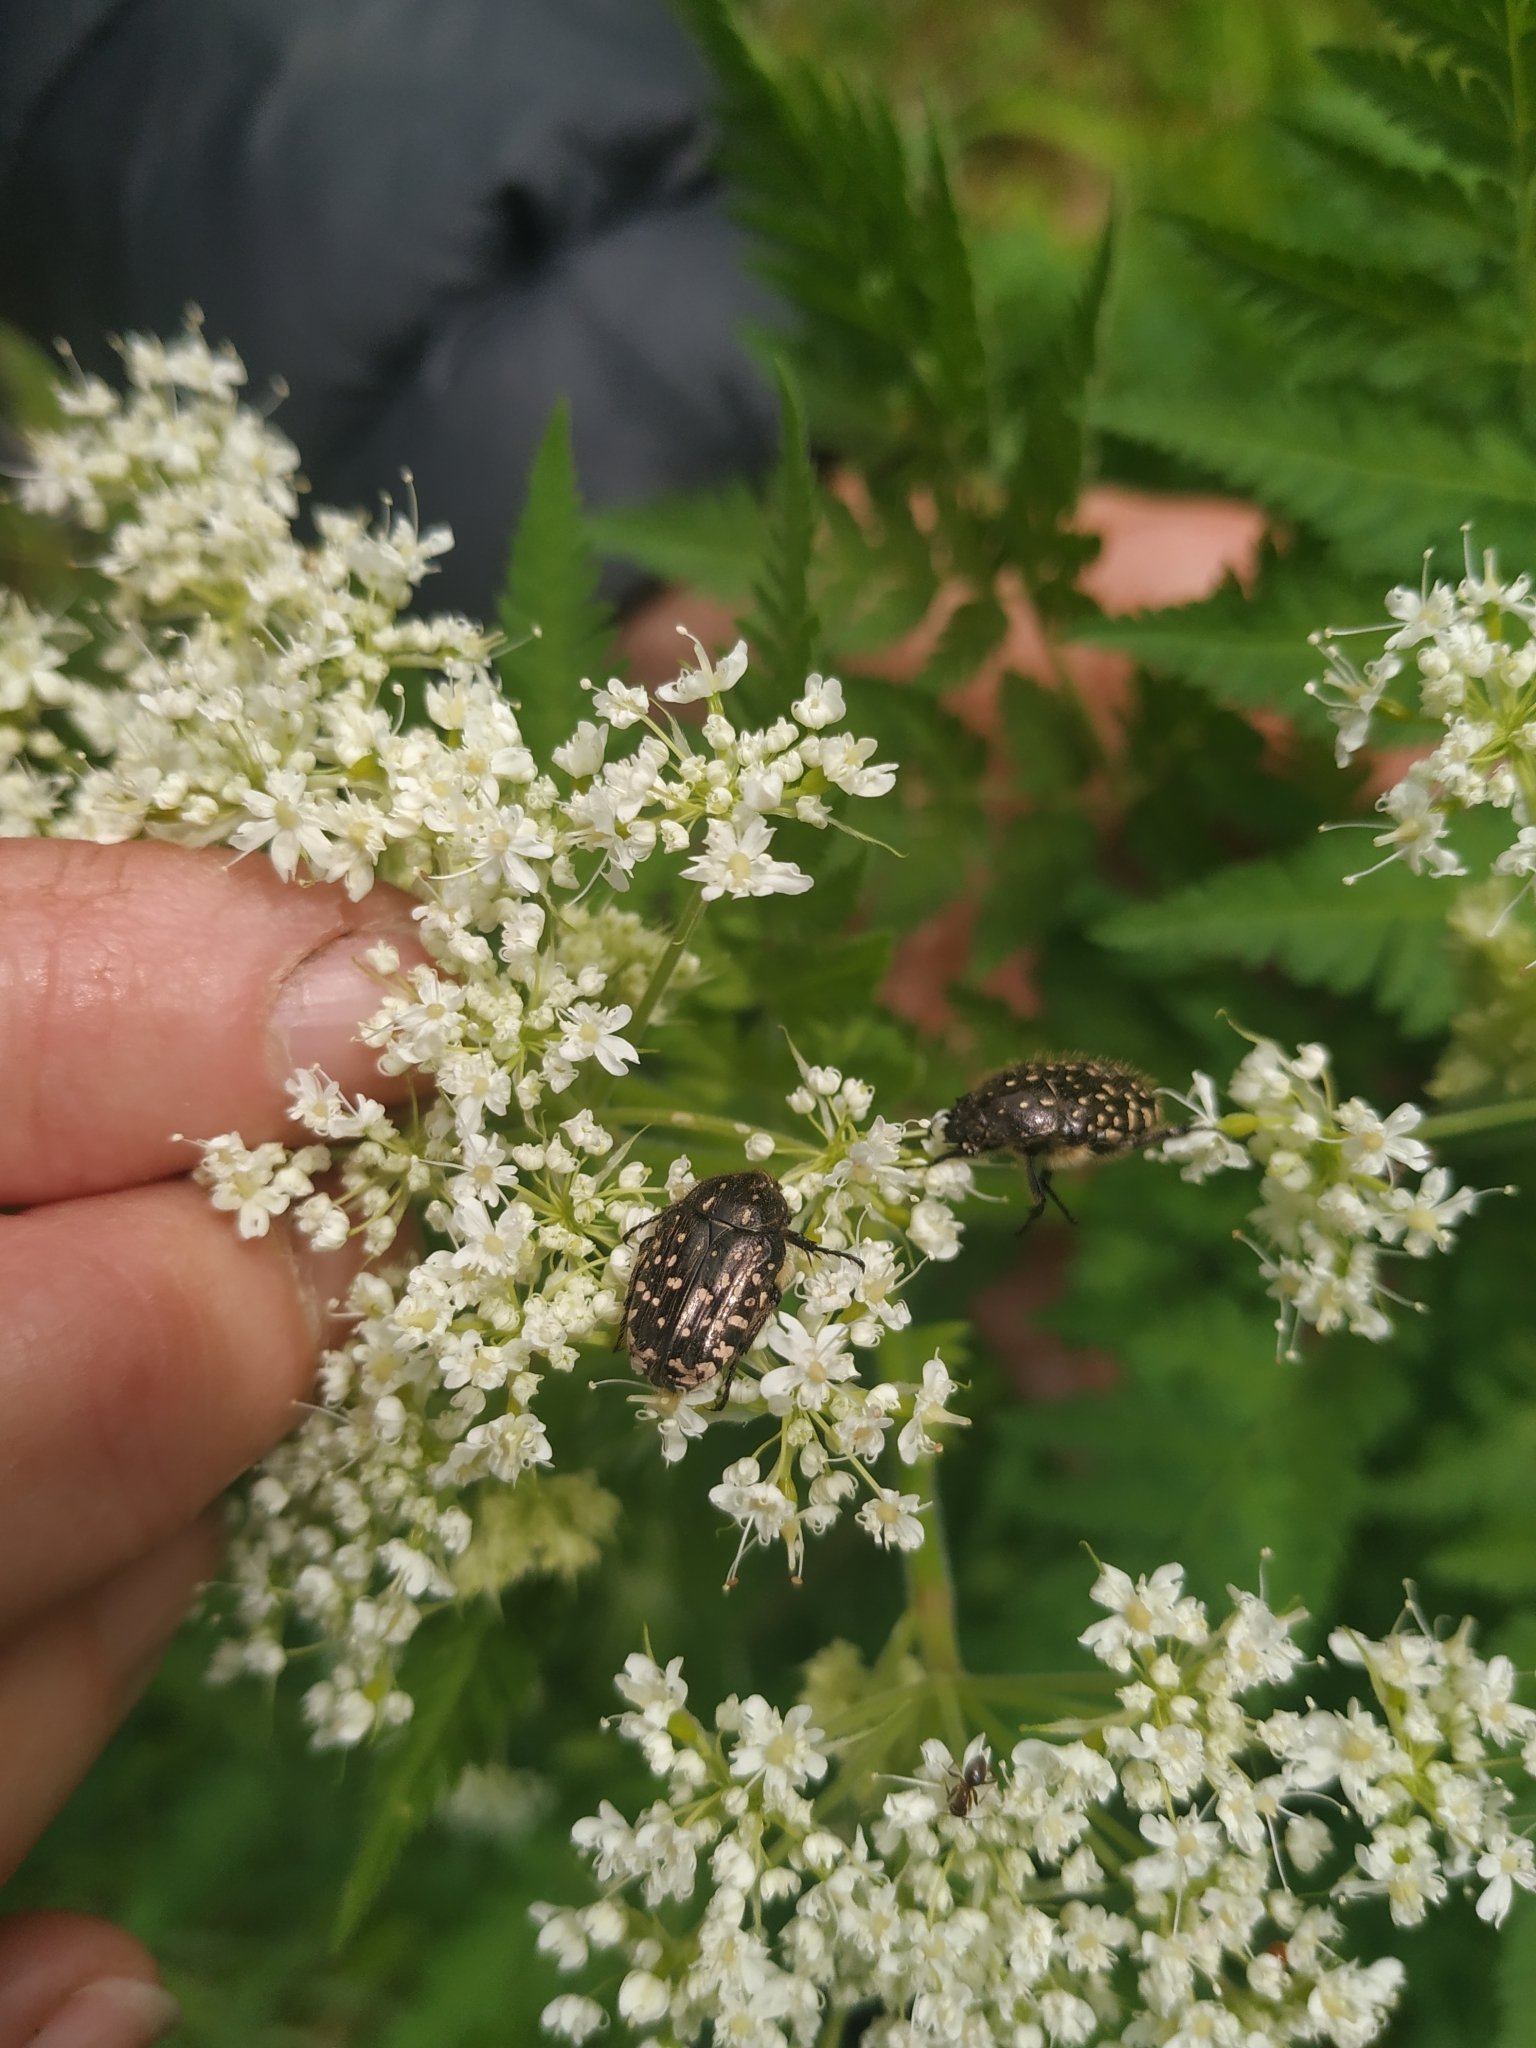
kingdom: Animalia
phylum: Arthropoda
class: Insecta
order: Coleoptera
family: Scarabaeidae
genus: Oxythyrea
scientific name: Oxythyrea funesta
